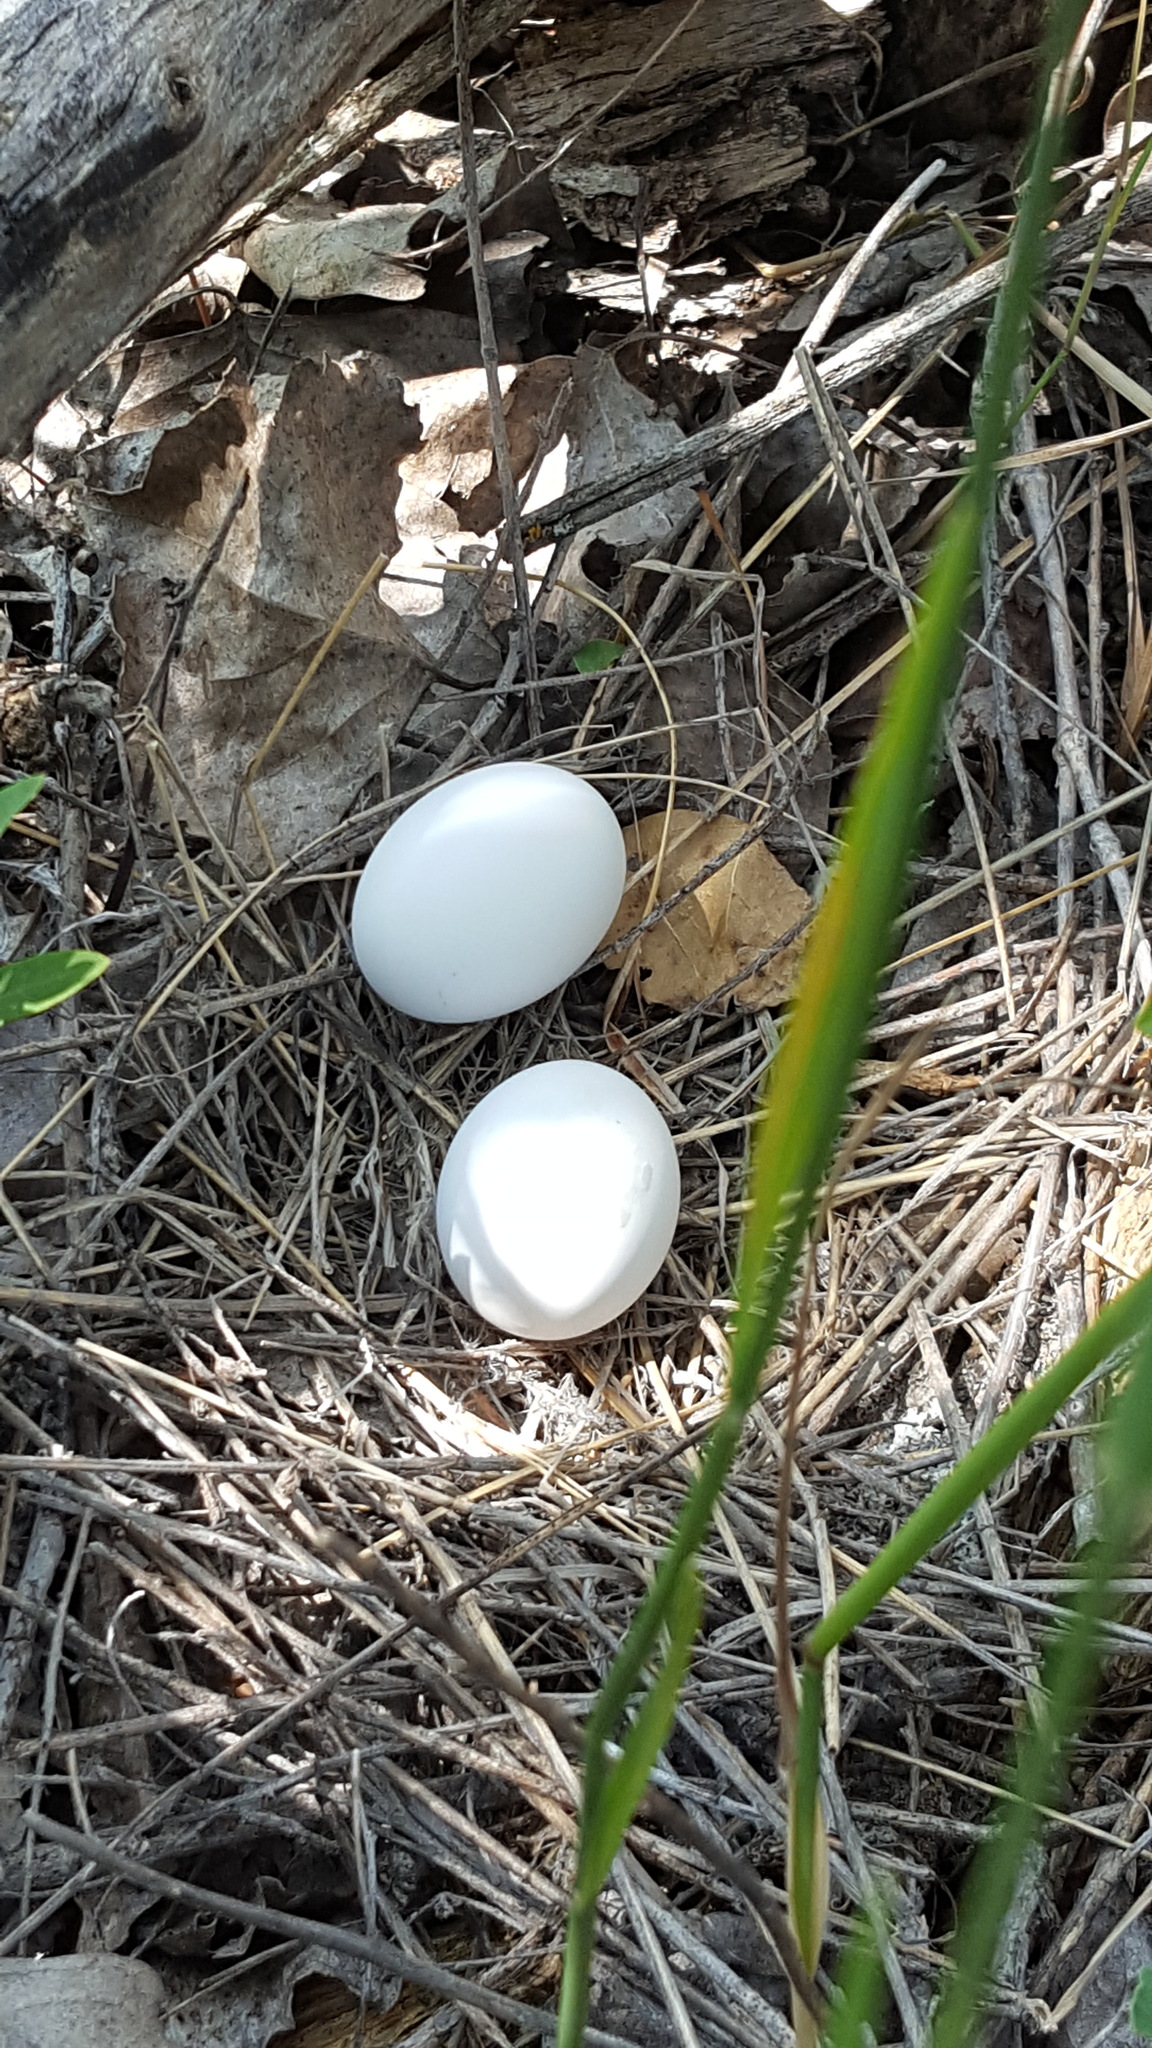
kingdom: Animalia
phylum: Chordata
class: Aves
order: Columbiformes
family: Columbidae
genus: Zenaida
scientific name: Zenaida macroura
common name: Mourning dove
